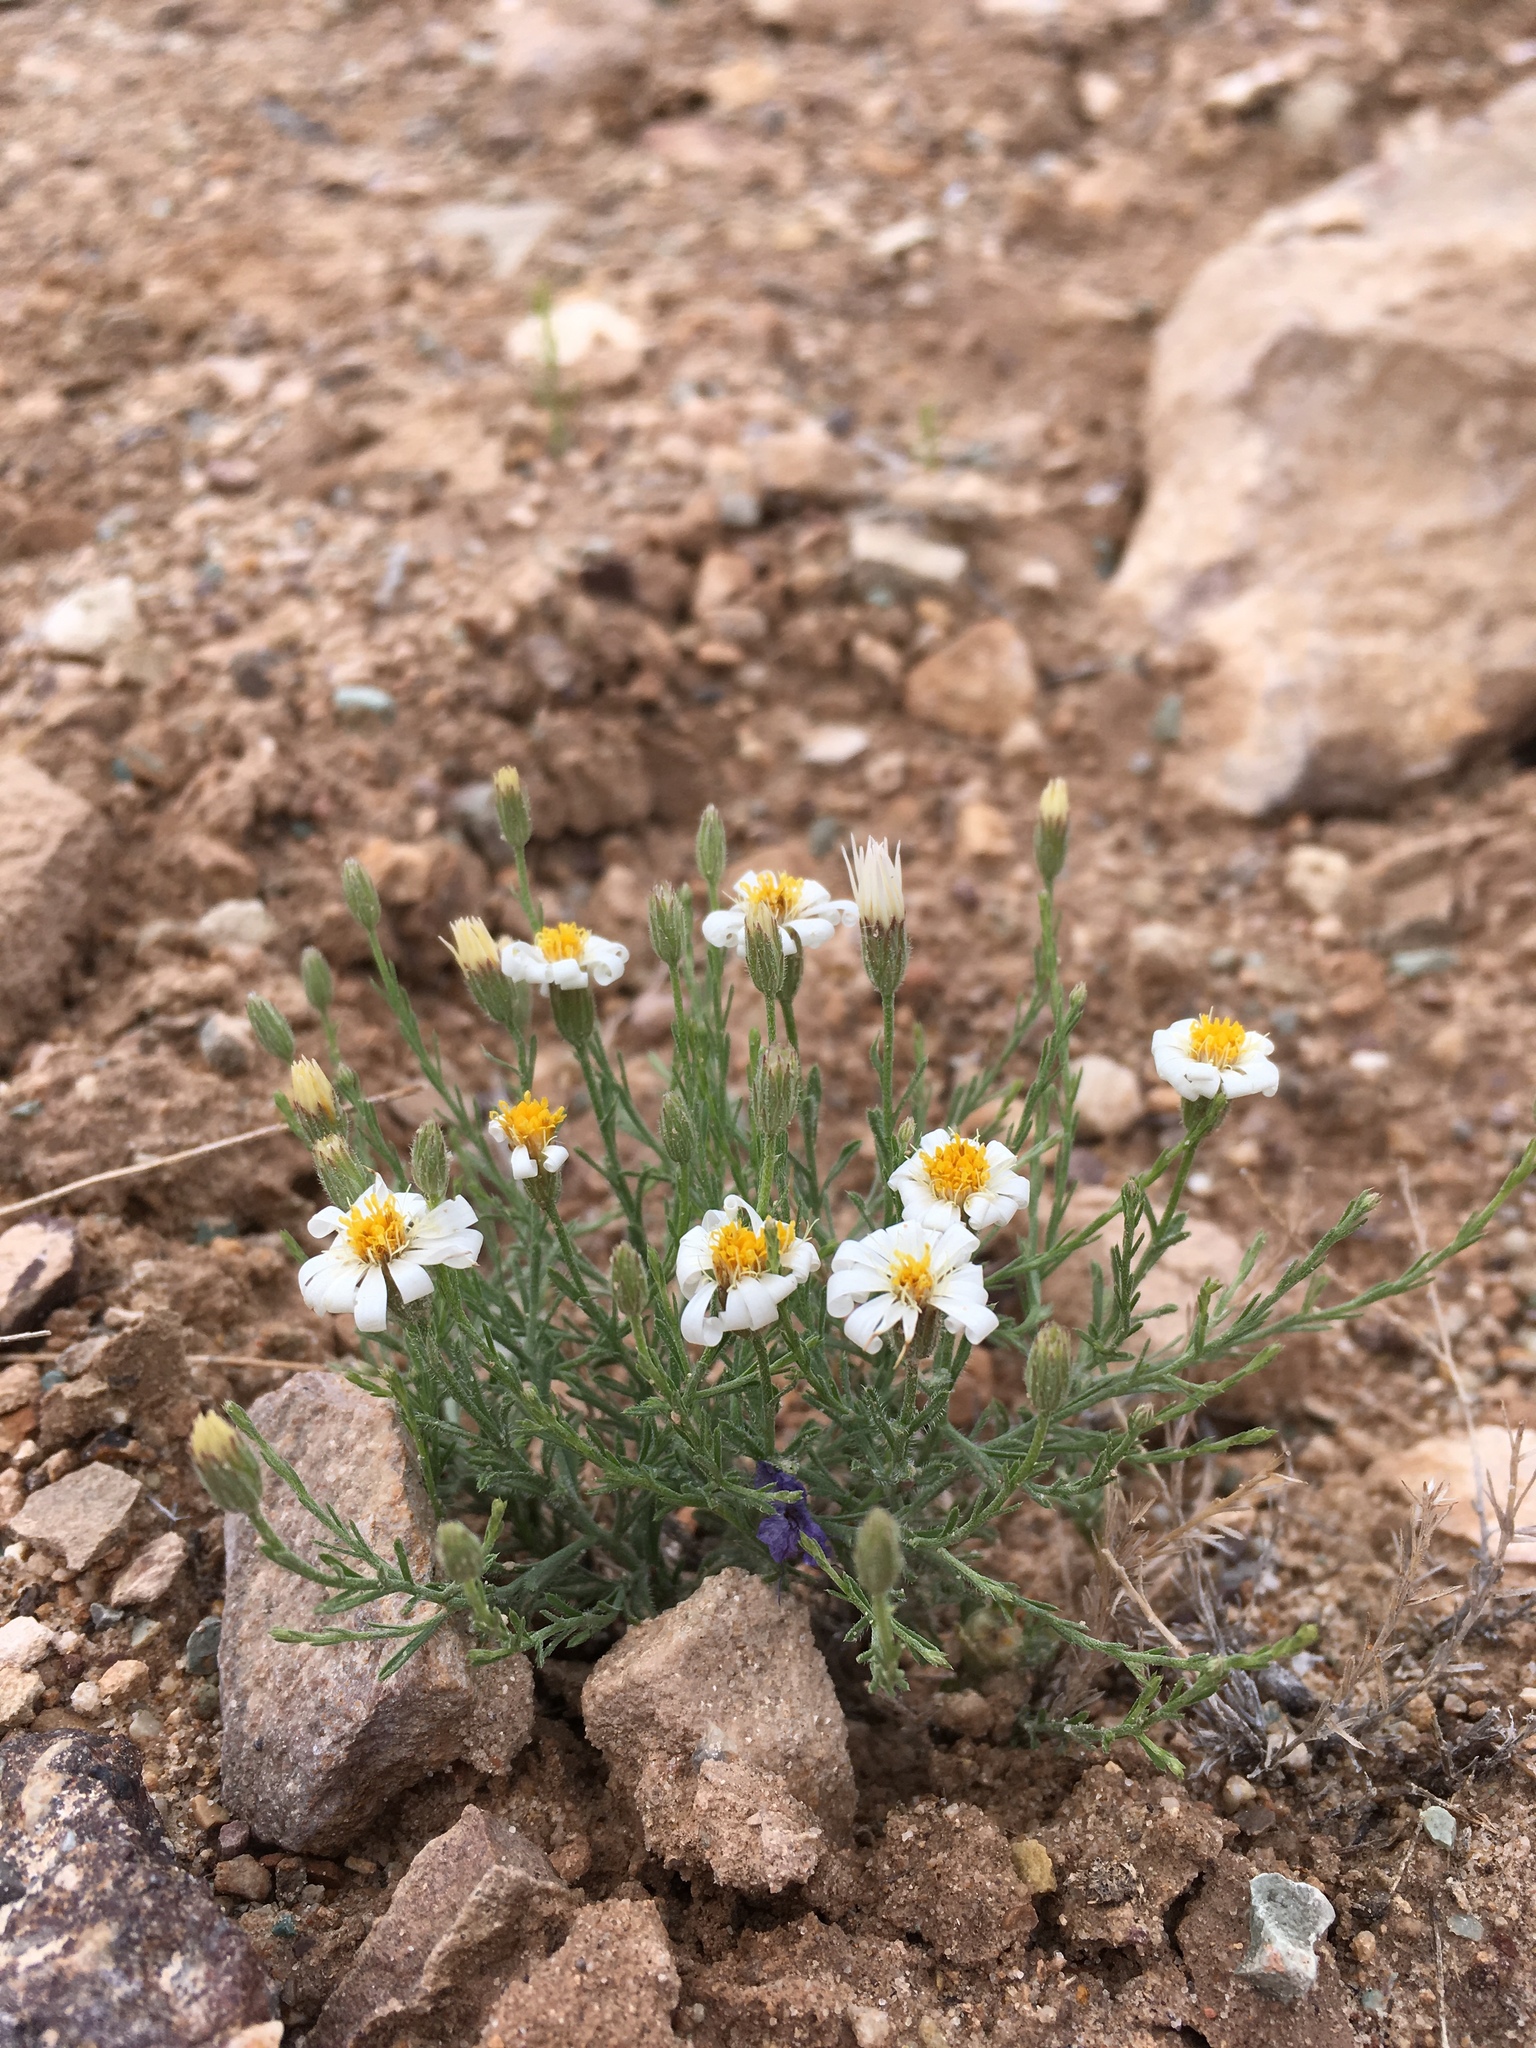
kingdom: Plantae
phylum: Tracheophyta
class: Magnoliopsida
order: Asterales
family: Asteraceae
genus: Chaetopappa
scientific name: Chaetopappa ericoides
